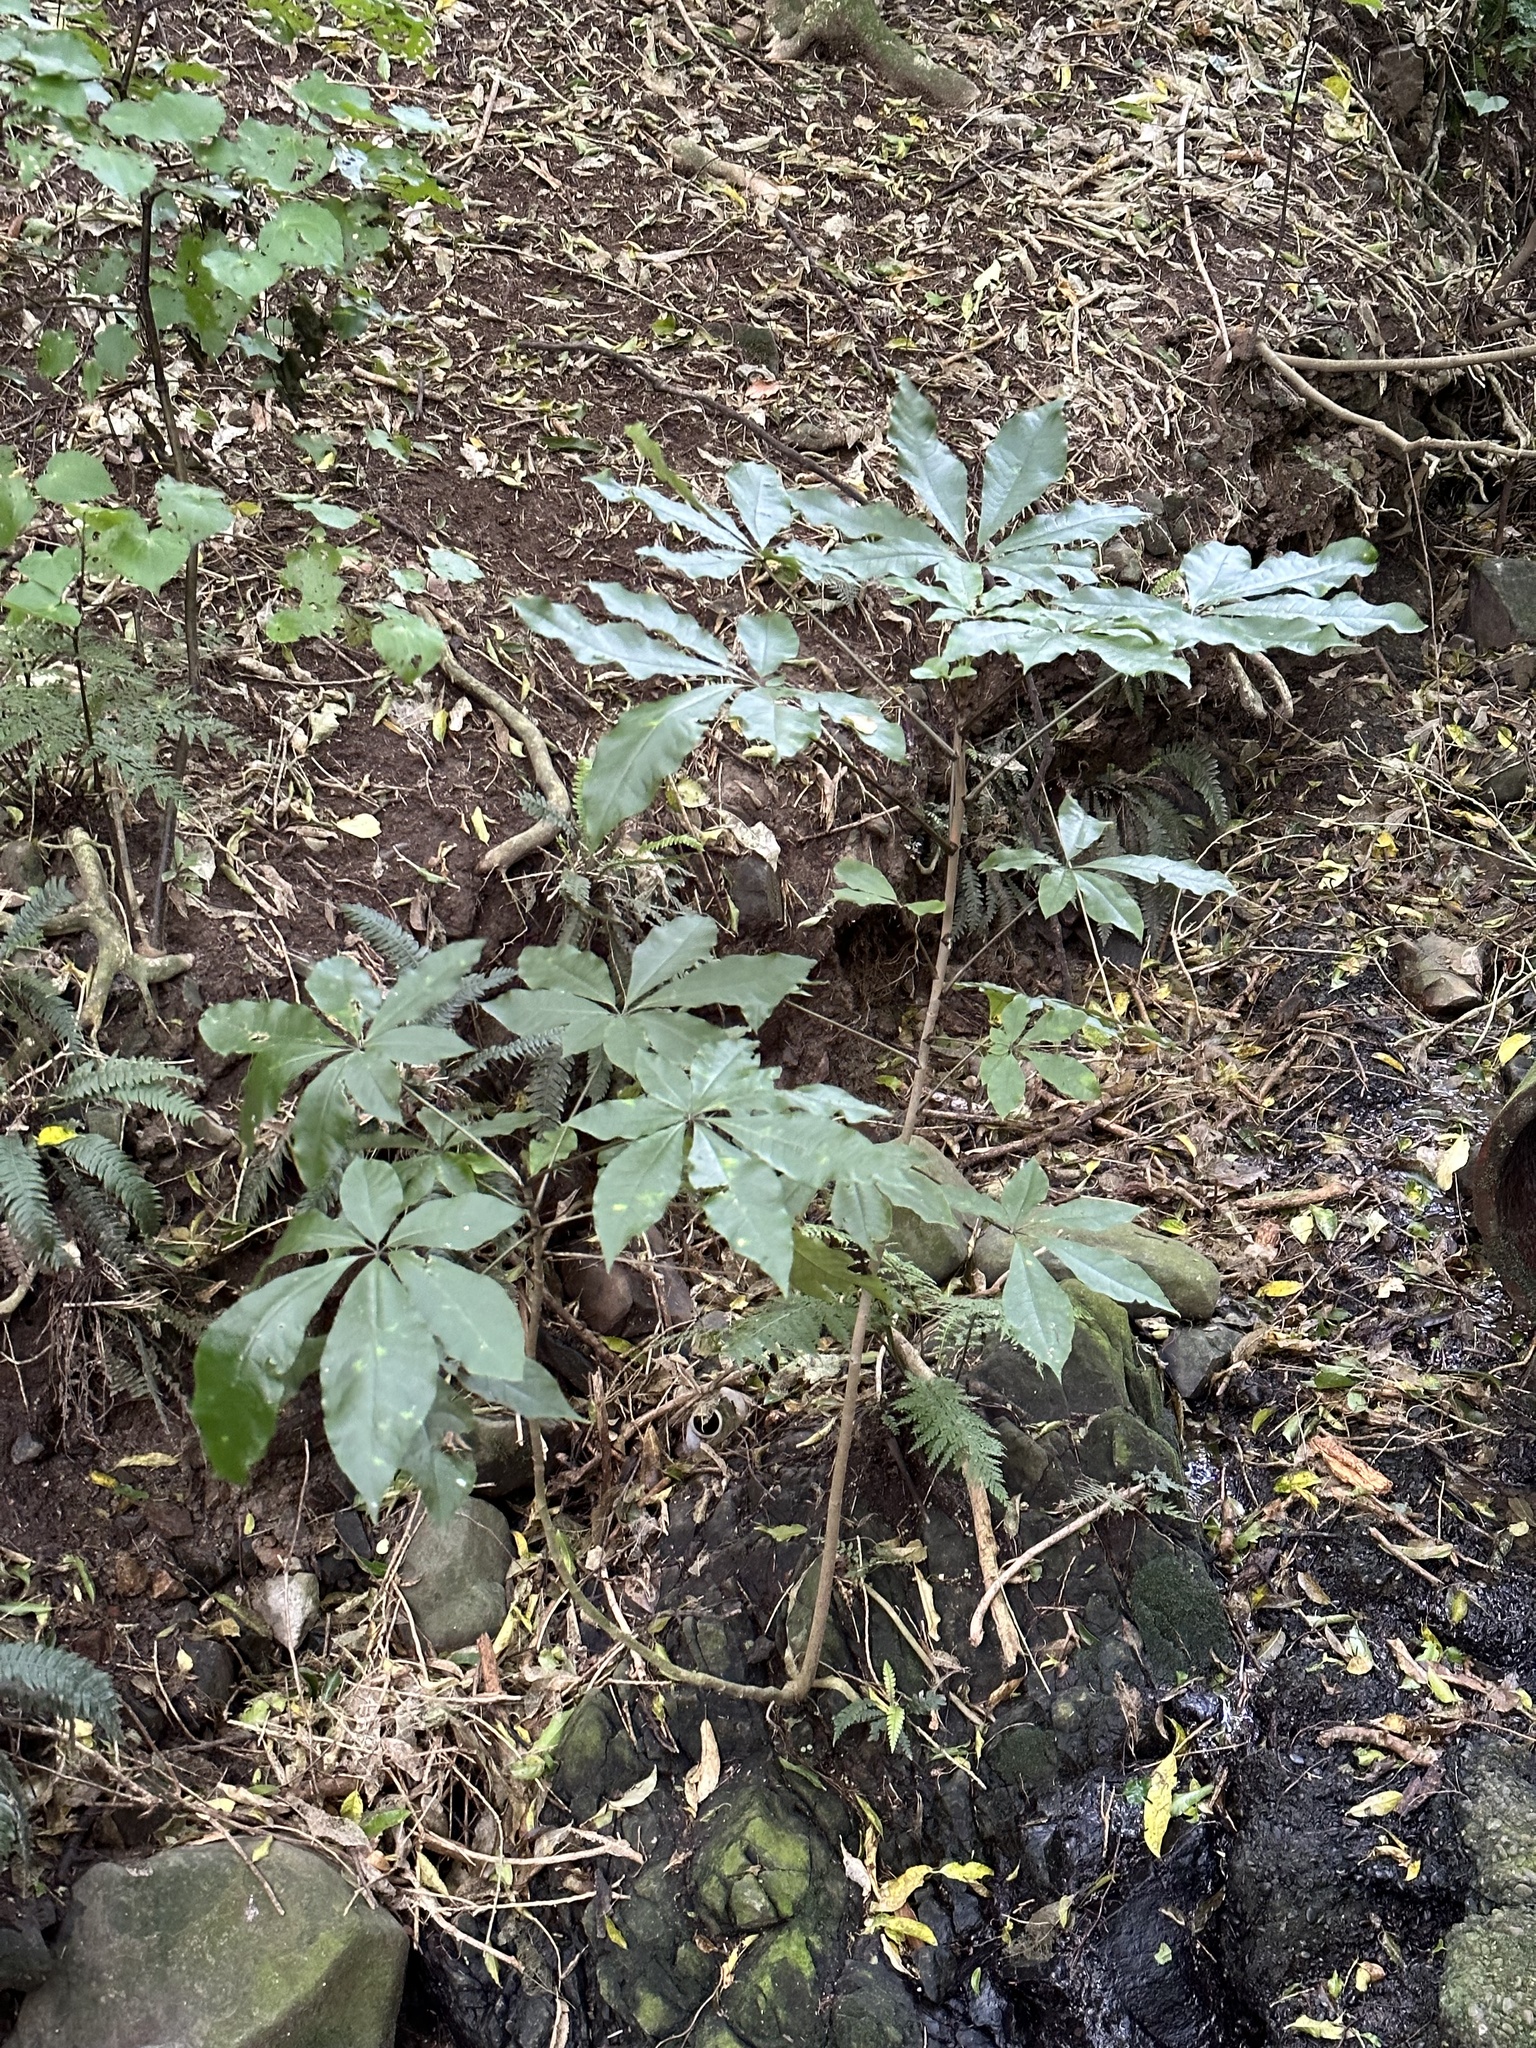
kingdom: Plantae
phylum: Tracheophyta
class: Magnoliopsida
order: Apiales
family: Araliaceae
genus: Schefflera
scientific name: Schefflera digitata
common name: Pate
